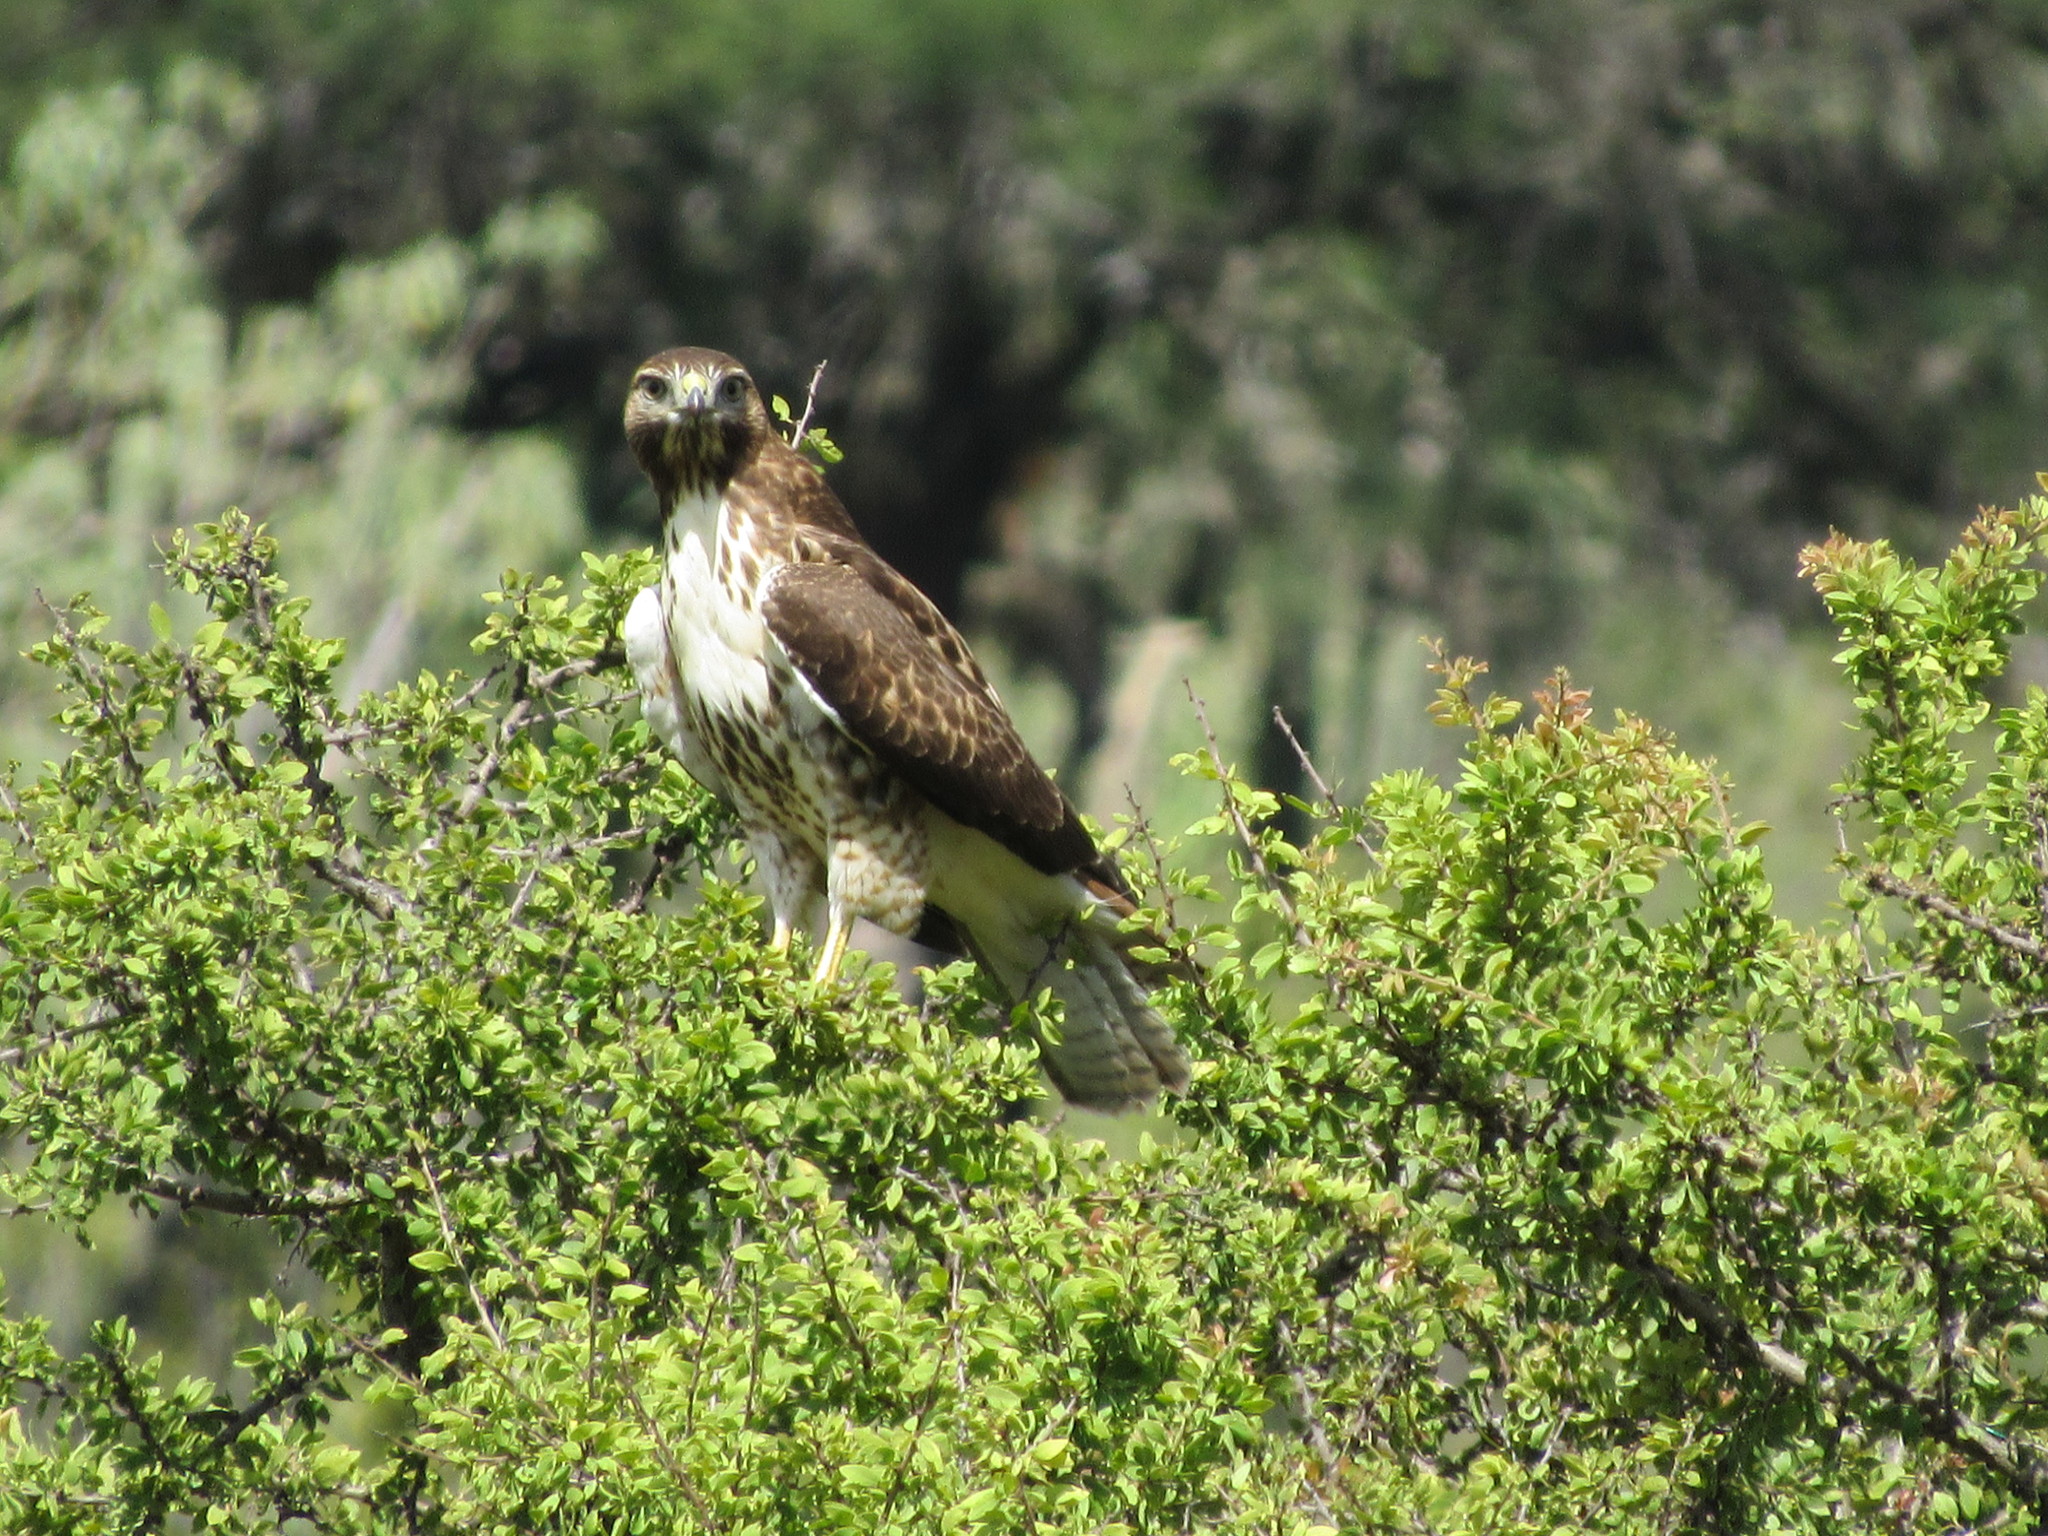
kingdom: Animalia
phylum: Chordata
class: Aves
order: Accipitriformes
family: Accipitridae
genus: Buteo
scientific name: Buteo jamaicensis
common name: Red-tailed hawk
